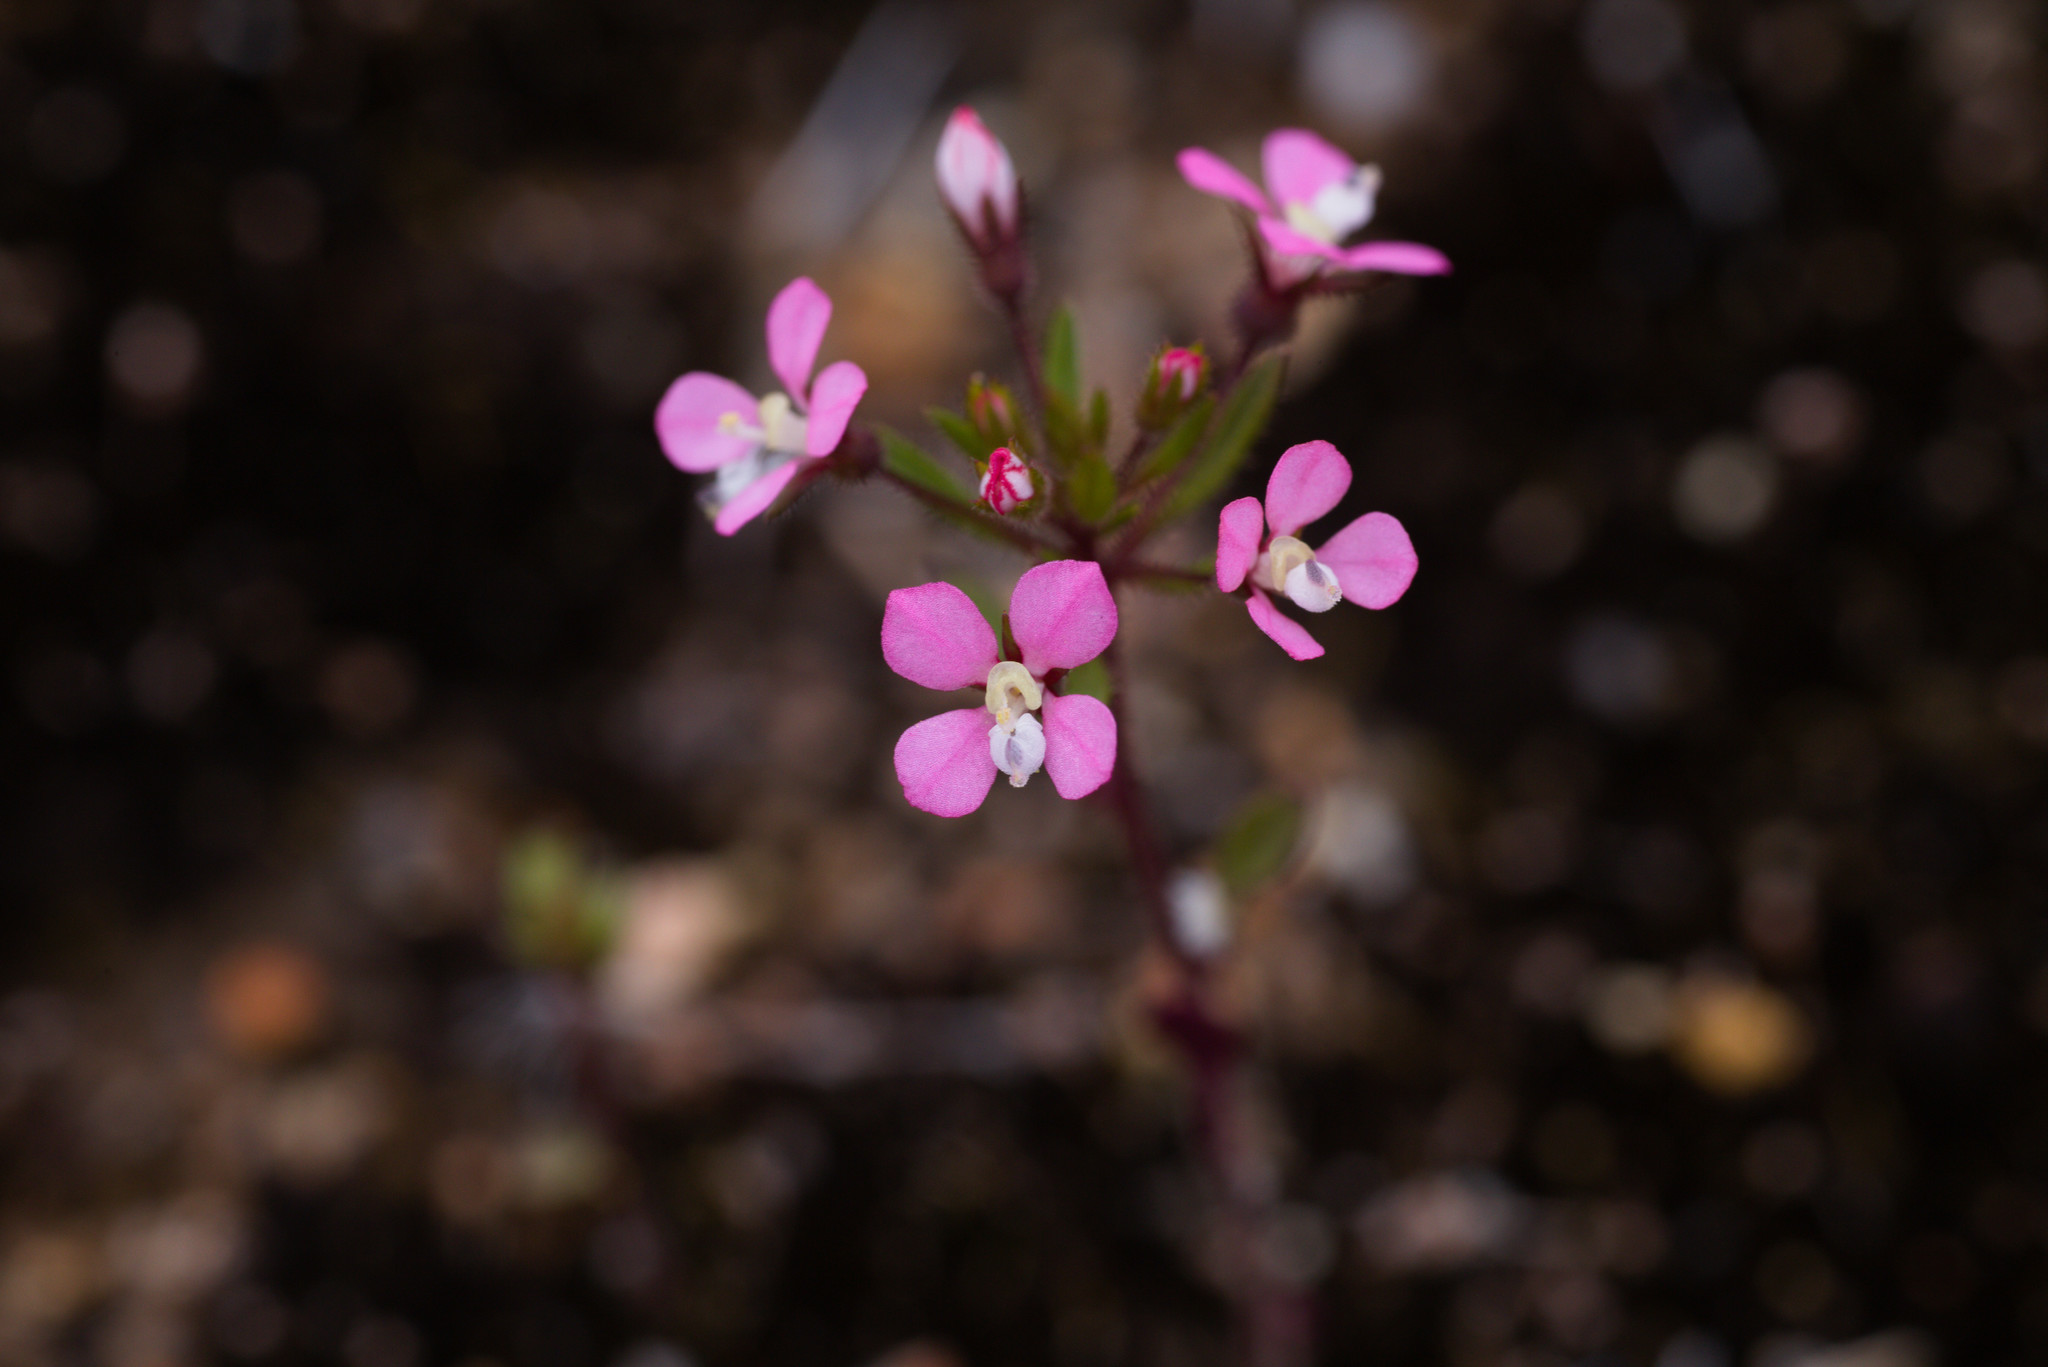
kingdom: Plantae
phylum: Tracheophyta
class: Magnoliopsida
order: Asterales
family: Stylidiaceae
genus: Levenhookia
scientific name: Levenhookia stipitata
